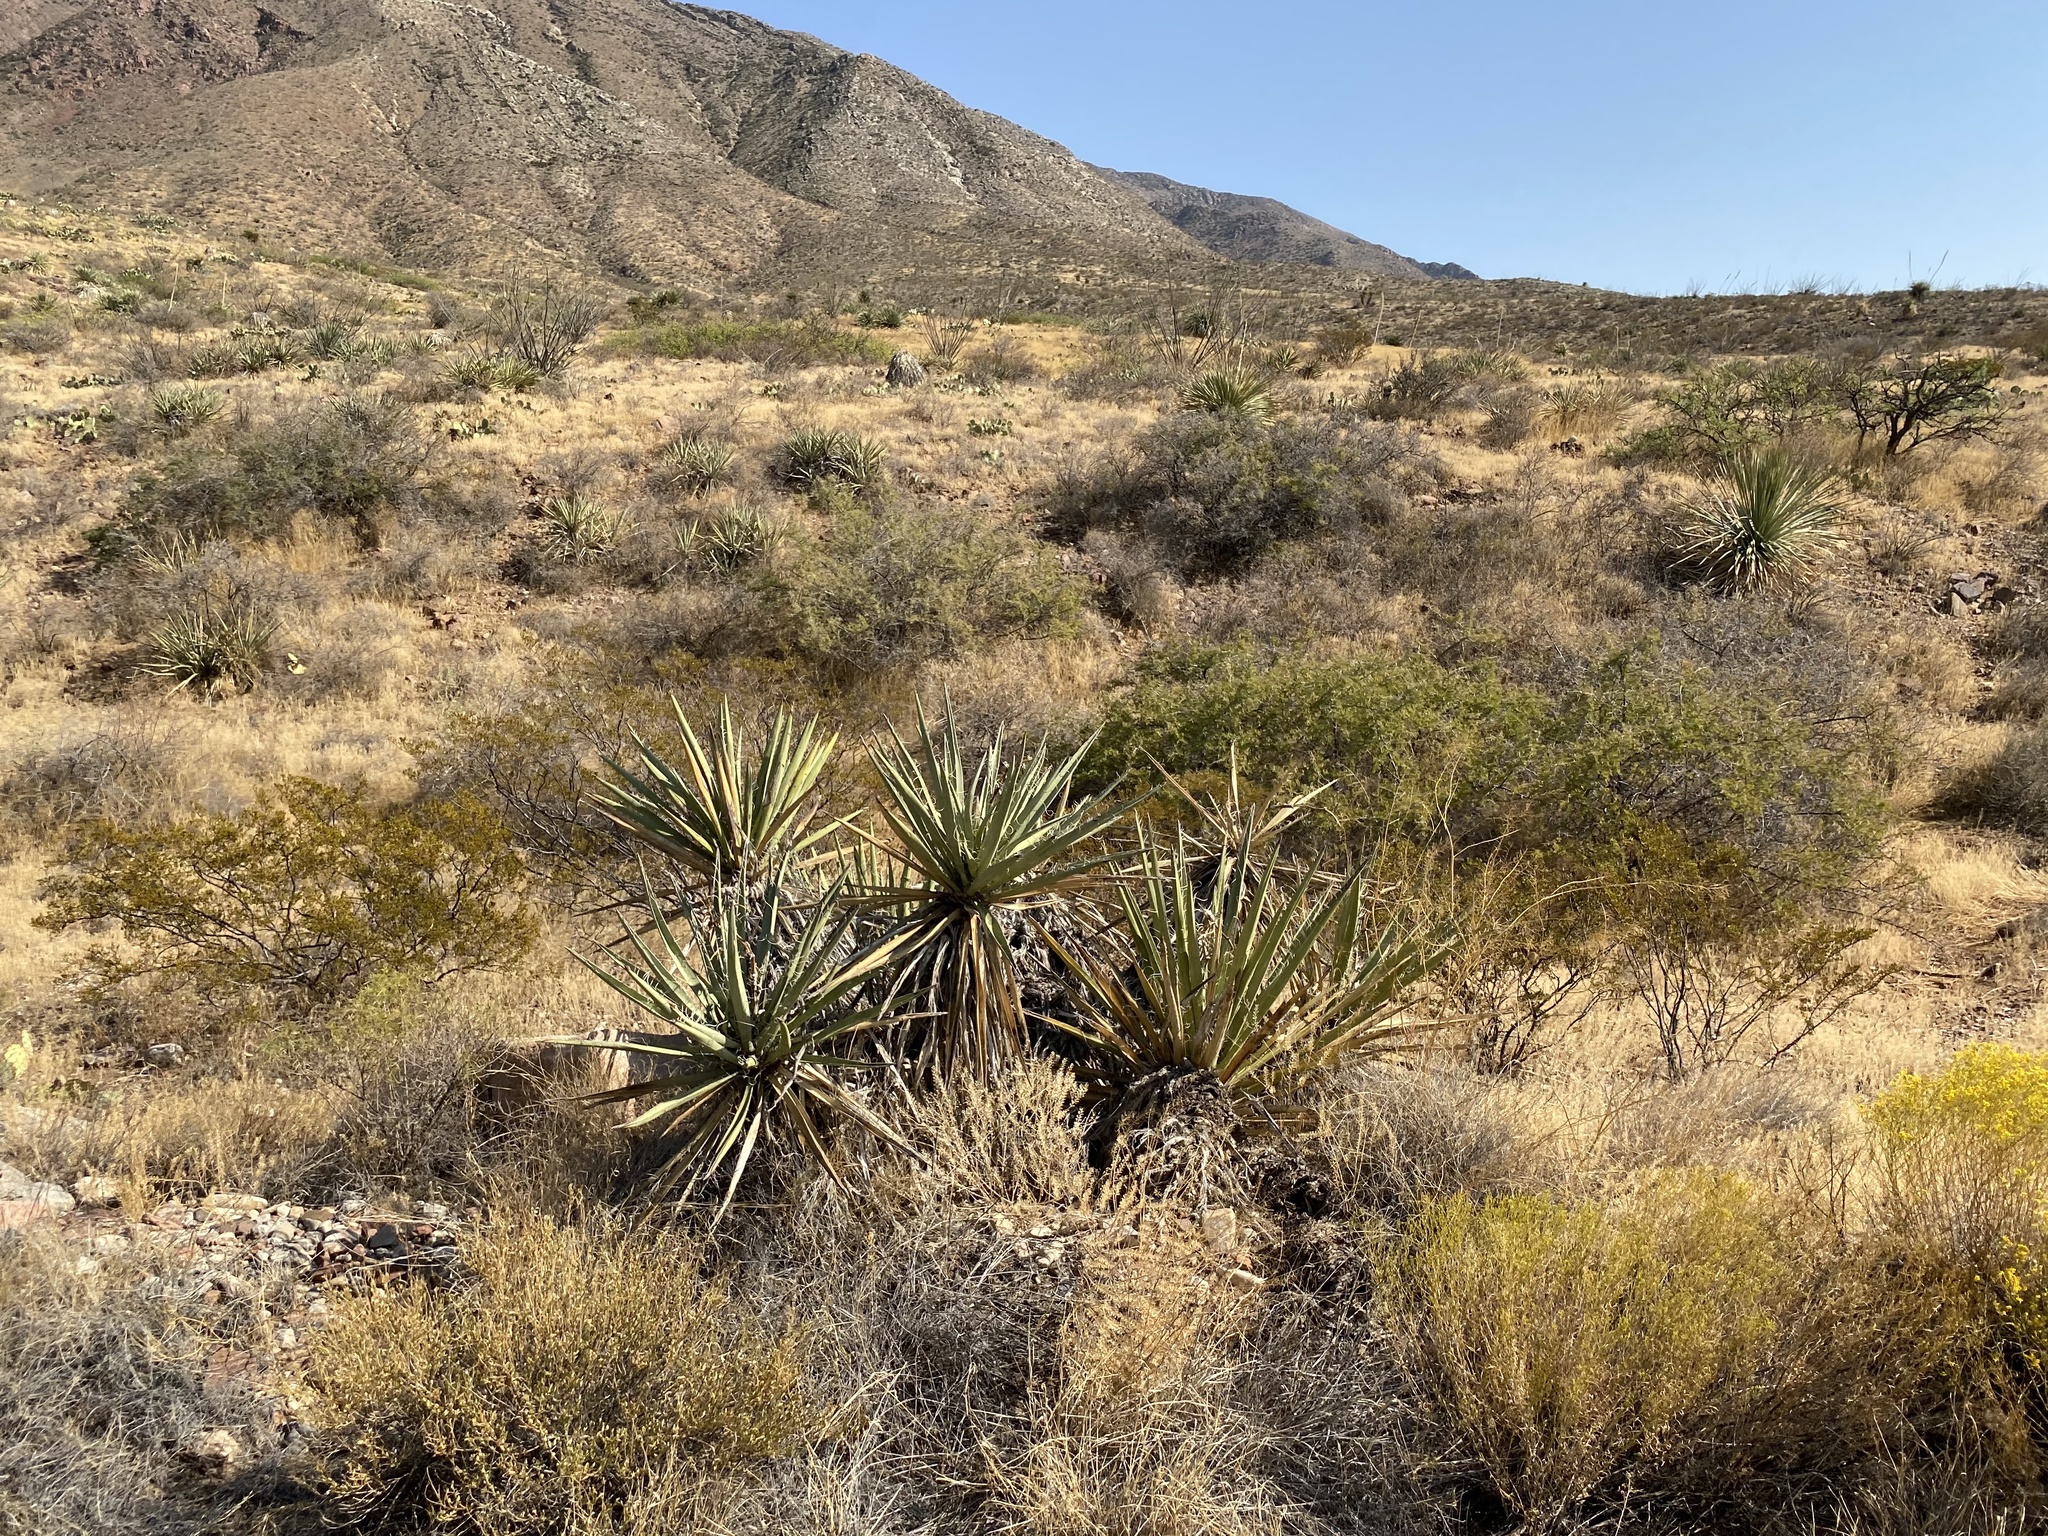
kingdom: Plantae
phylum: Tracheophyta
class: Liliopsida
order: Asparagales
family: Asparagaceae
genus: Yucca
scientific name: Yucca baccata
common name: Banana yucca
